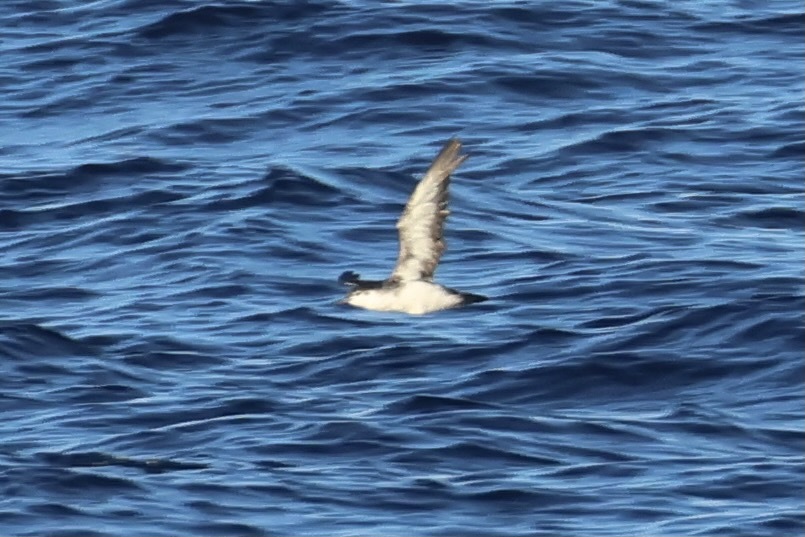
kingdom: Animalia
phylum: Chordata
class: Aves
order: Procellariiformes
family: Procellariidae
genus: Puffinus
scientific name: Puffinus lherminieri
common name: Audubon's shearwater
